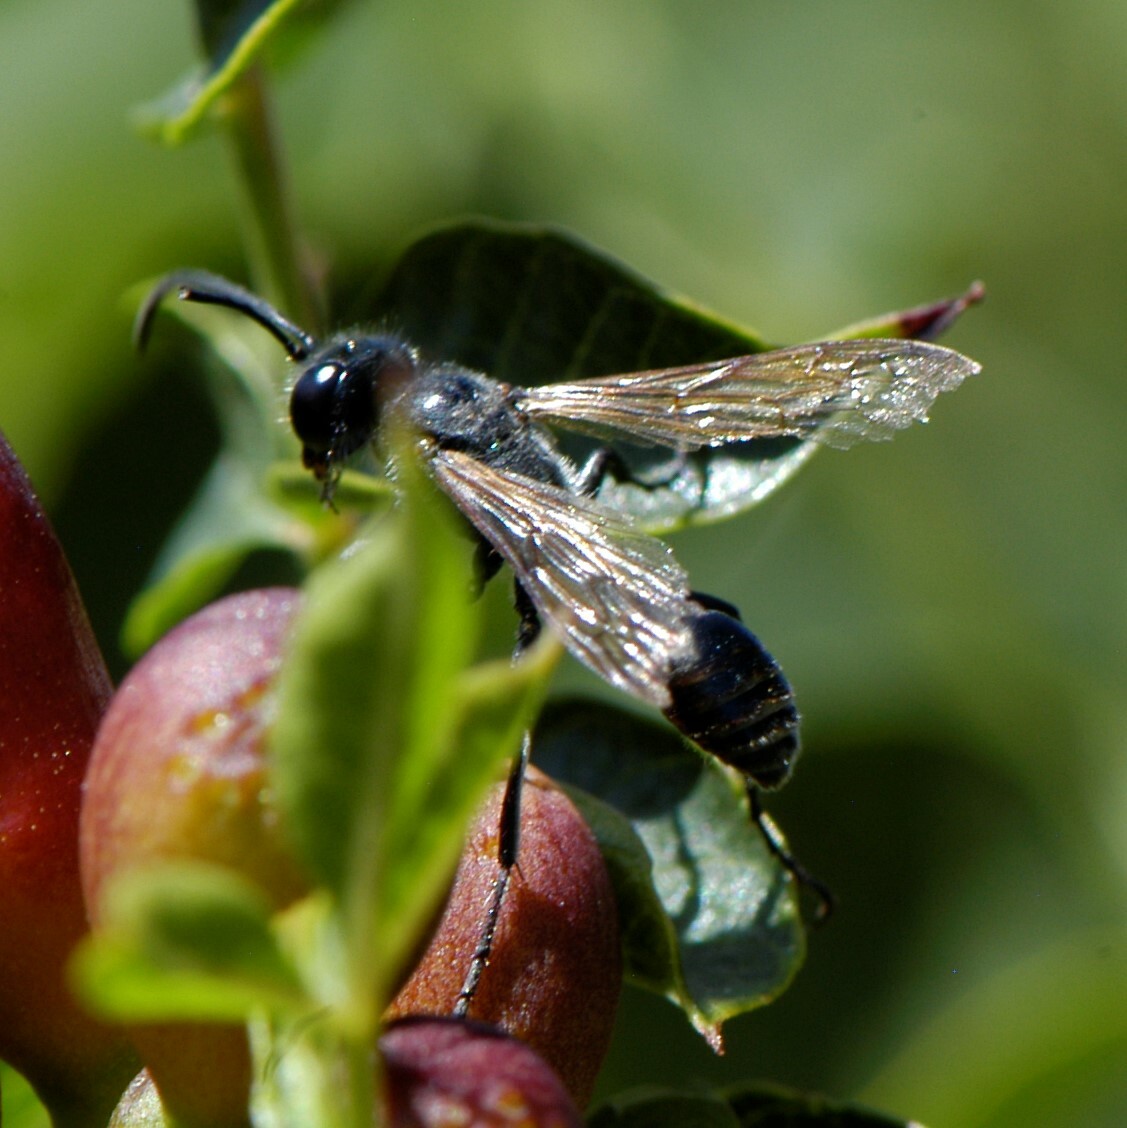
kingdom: Animalia
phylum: Arthropoda
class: Insecta
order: Hymenoptera
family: Sphecidae
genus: Isodontia
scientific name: Isodontia mexicana
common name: Mud dauber
